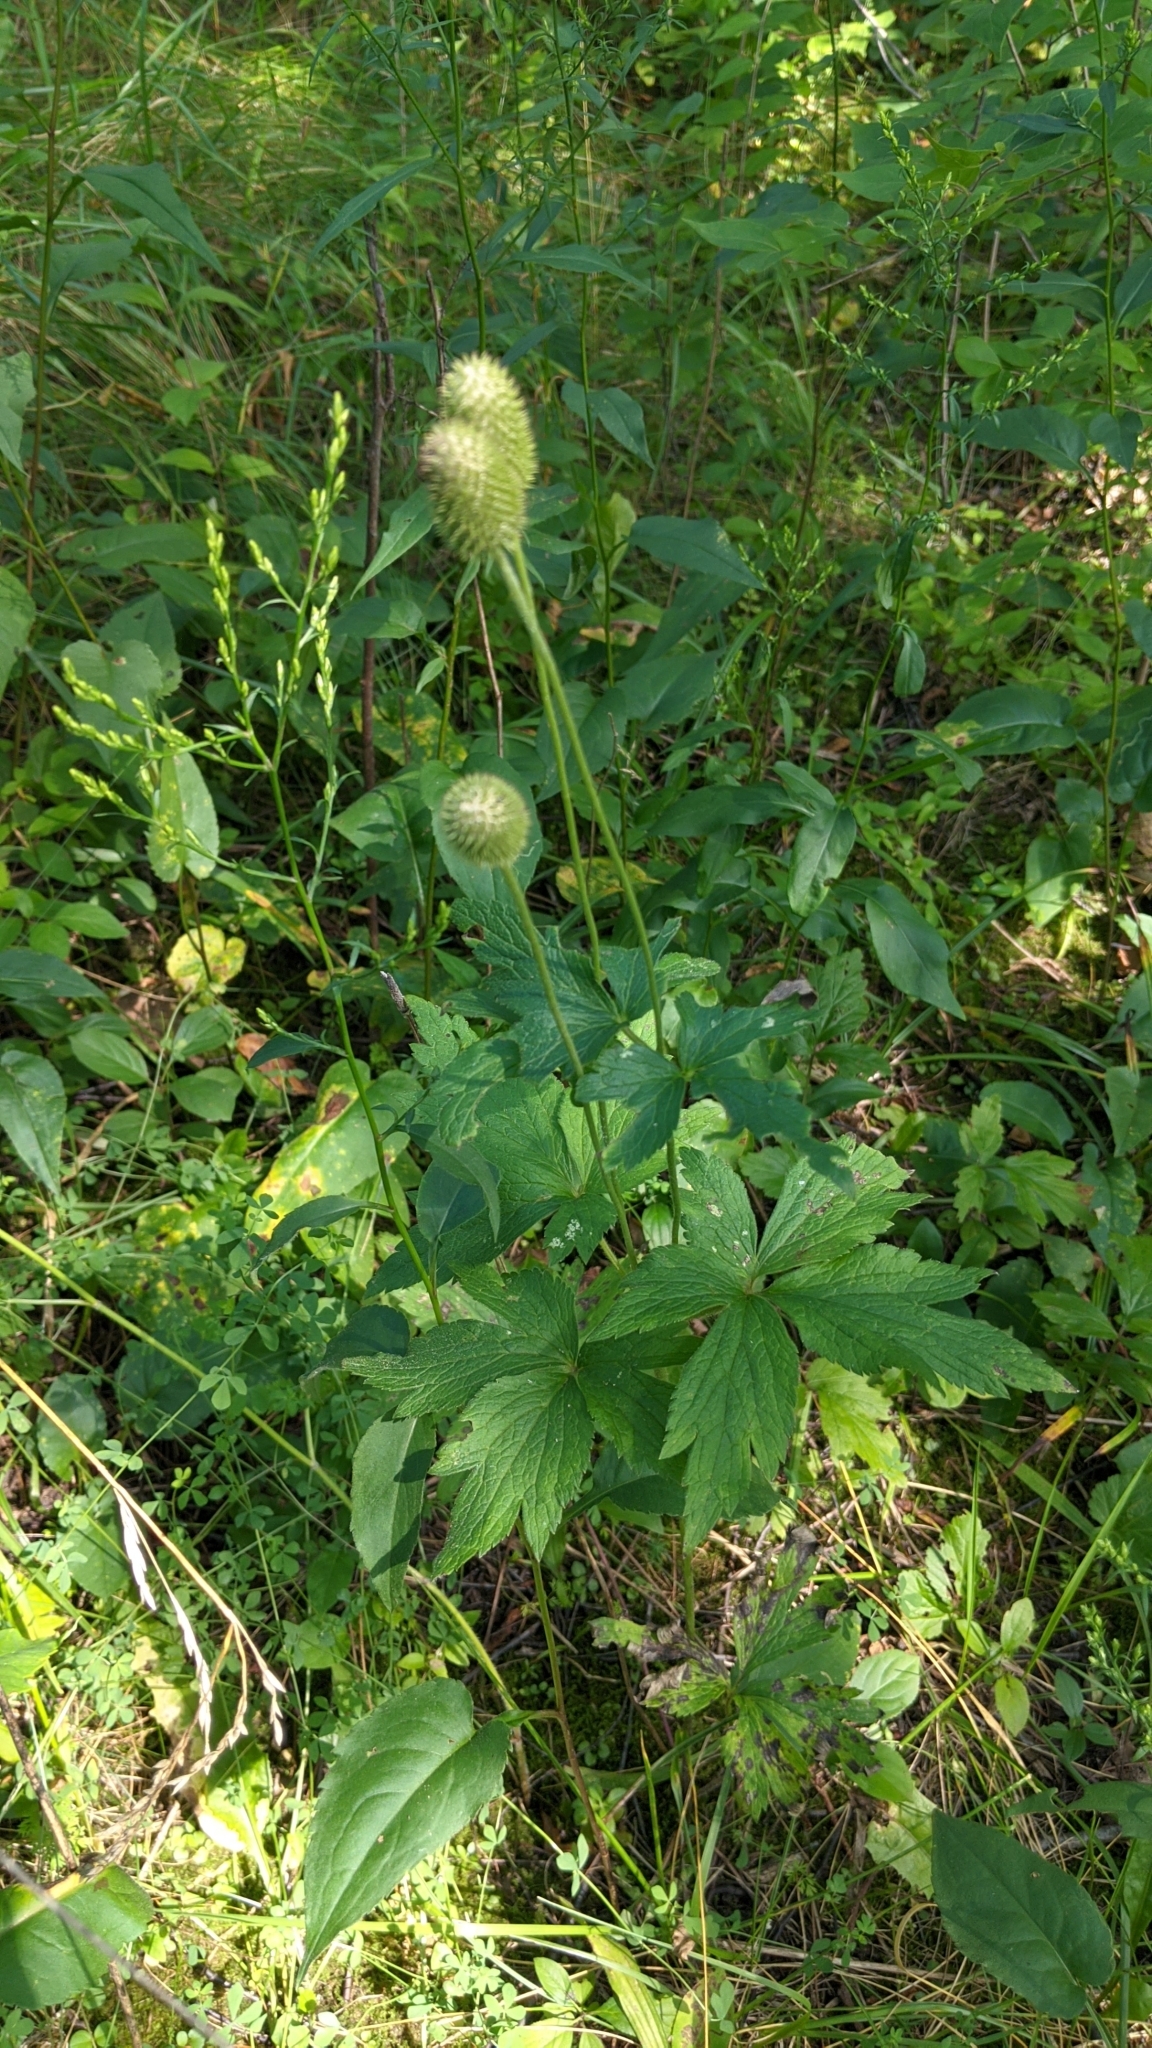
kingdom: Plantae
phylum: Tracheophyta
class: Magnoliopsida
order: Ranunculales
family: Ranunculaceae
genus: Anemone
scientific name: Anemone virginiana
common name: Tall anemone
